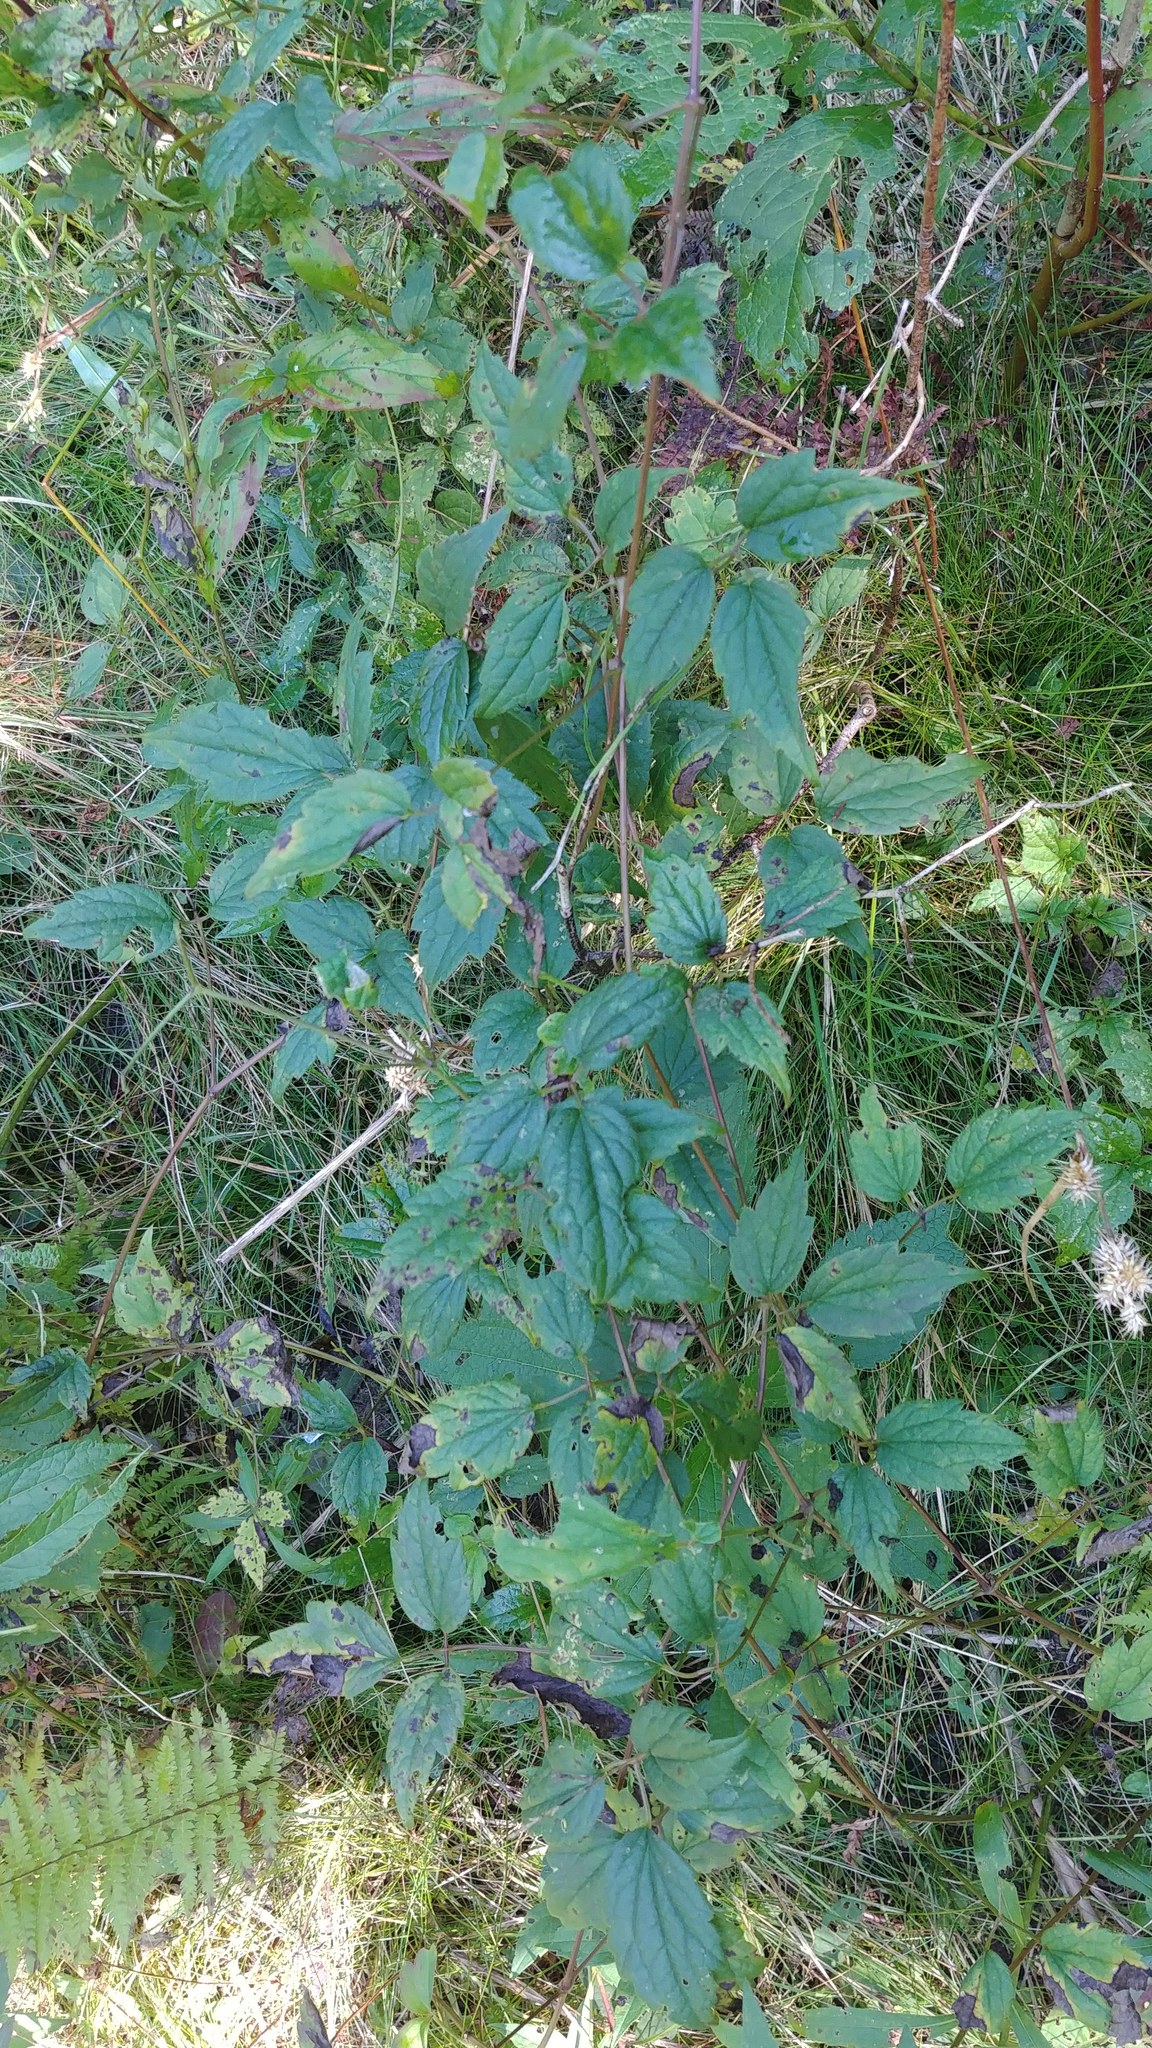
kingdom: Plantae
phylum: Tracheophyta
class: Magnoliopsida
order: Ranunculales
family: Ranunculaceae
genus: Clematis
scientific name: Clematis virginiana
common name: Virgin's-bower
